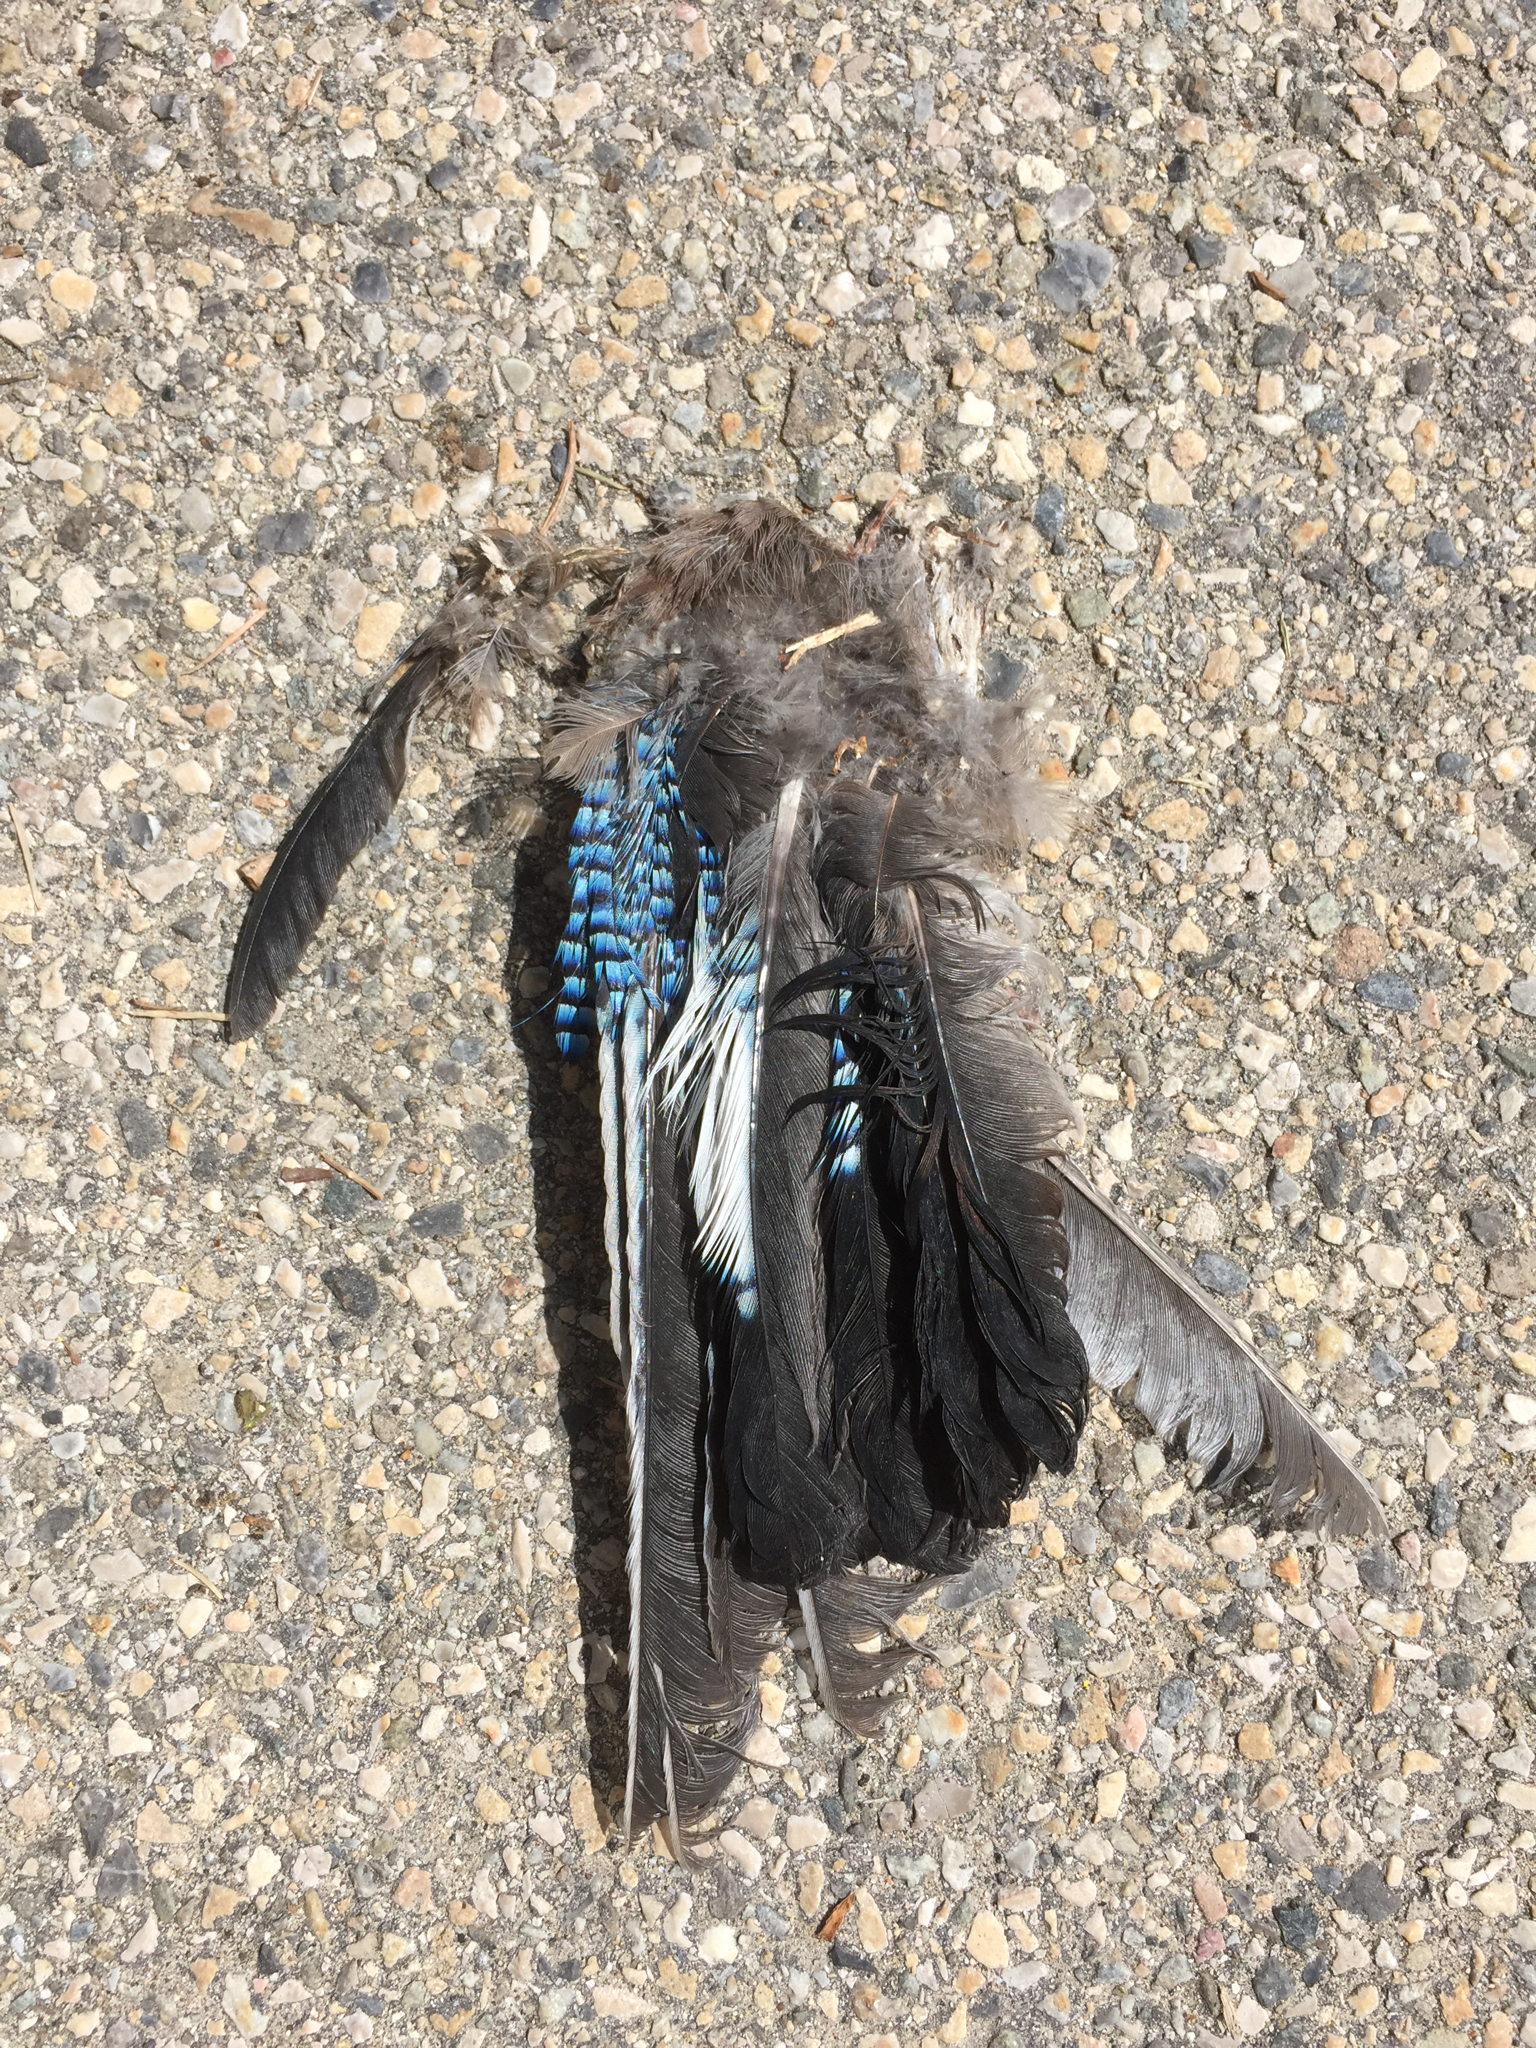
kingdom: Animalia
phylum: Chordata
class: Aves
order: Passeriformes
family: Corvidae
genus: Garrulus
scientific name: Garrulus glandarius
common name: Eurasian jay
